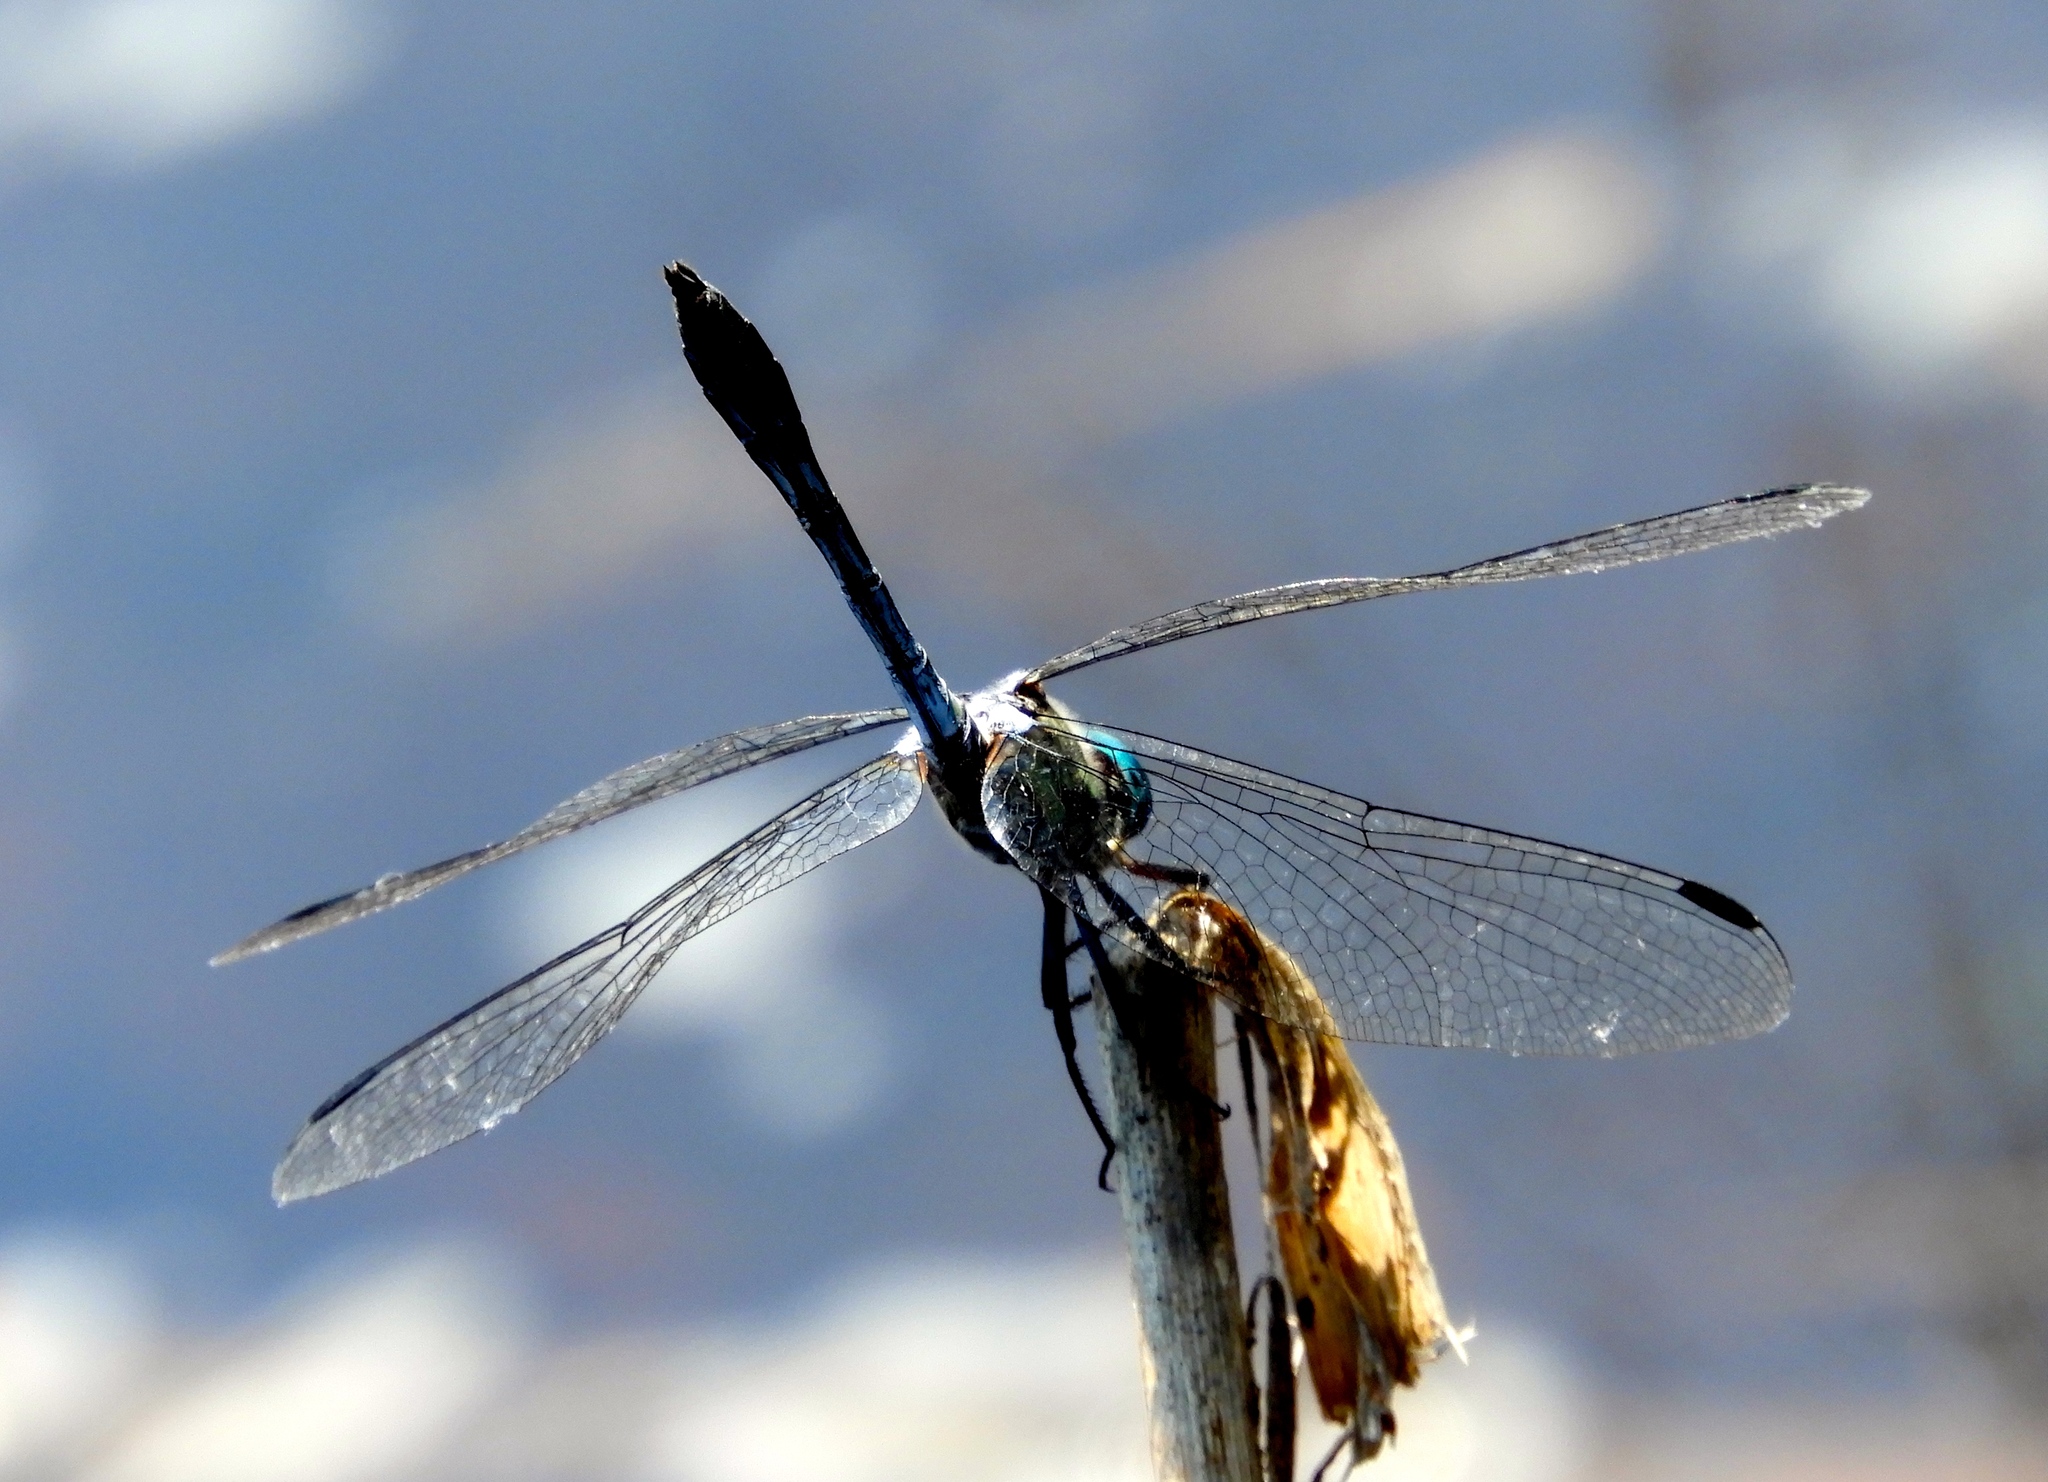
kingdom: Animalia
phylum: Arthropoda
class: Insecta
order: Odonata
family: Libellulidae
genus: Micrathyria
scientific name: Micrathyria hagenii
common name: Thornbush dasher
